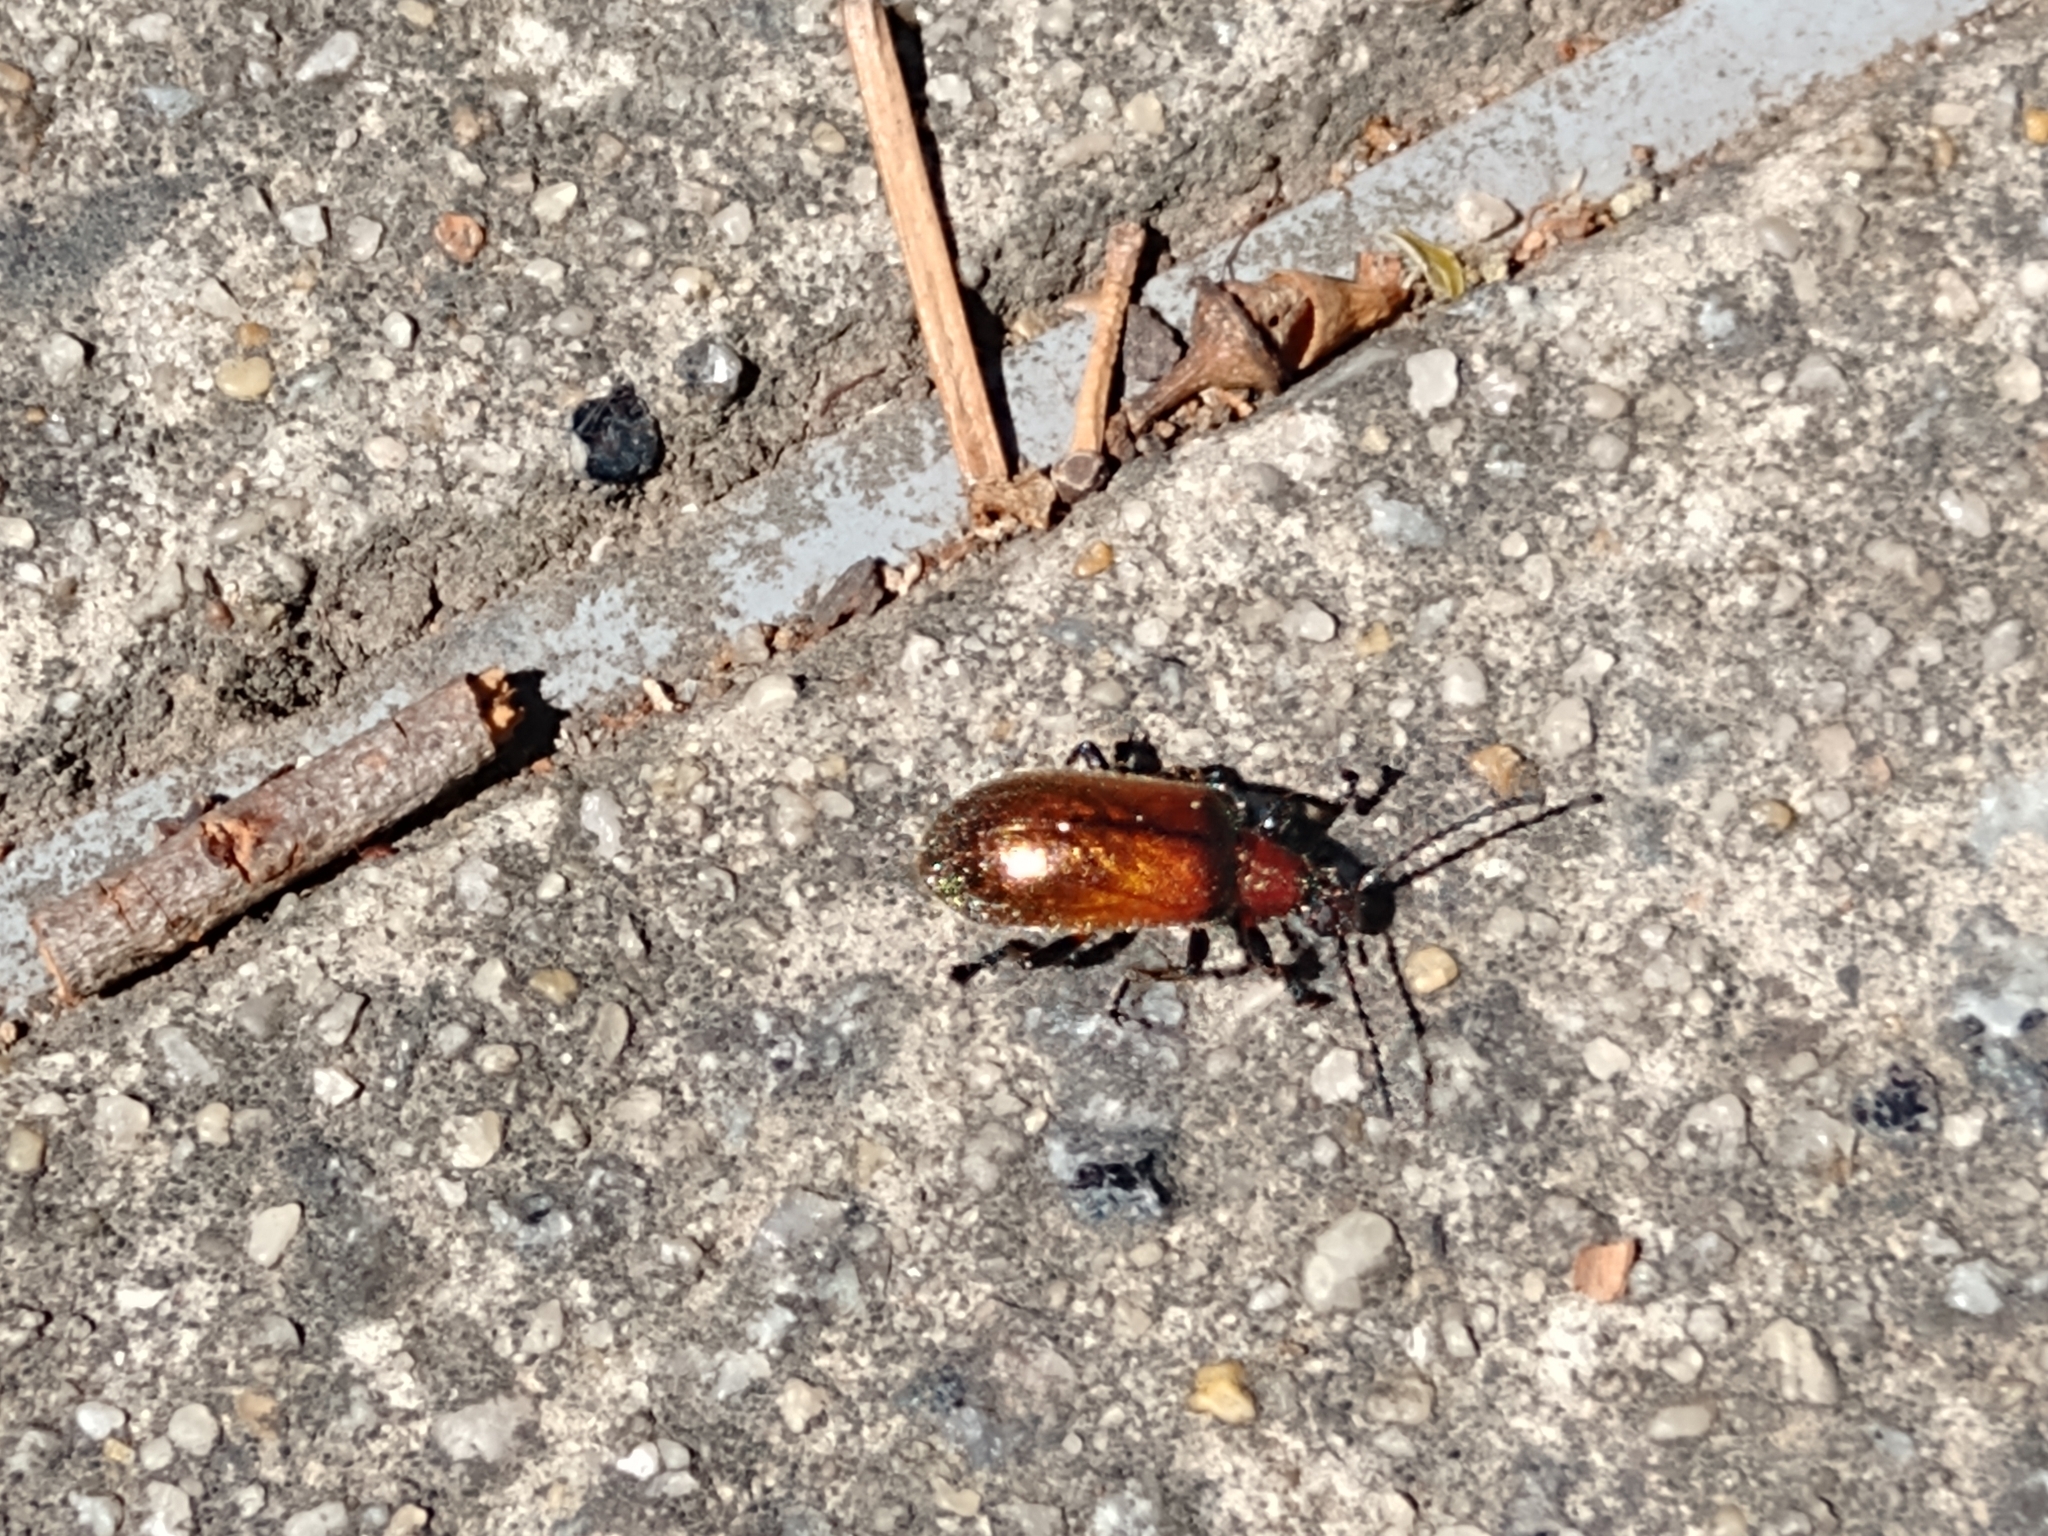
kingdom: Animalia
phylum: Arthropoda
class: Insecta
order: Coleoptera
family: Tenebrionidae
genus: Ecnolagria
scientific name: Ecnolagria
